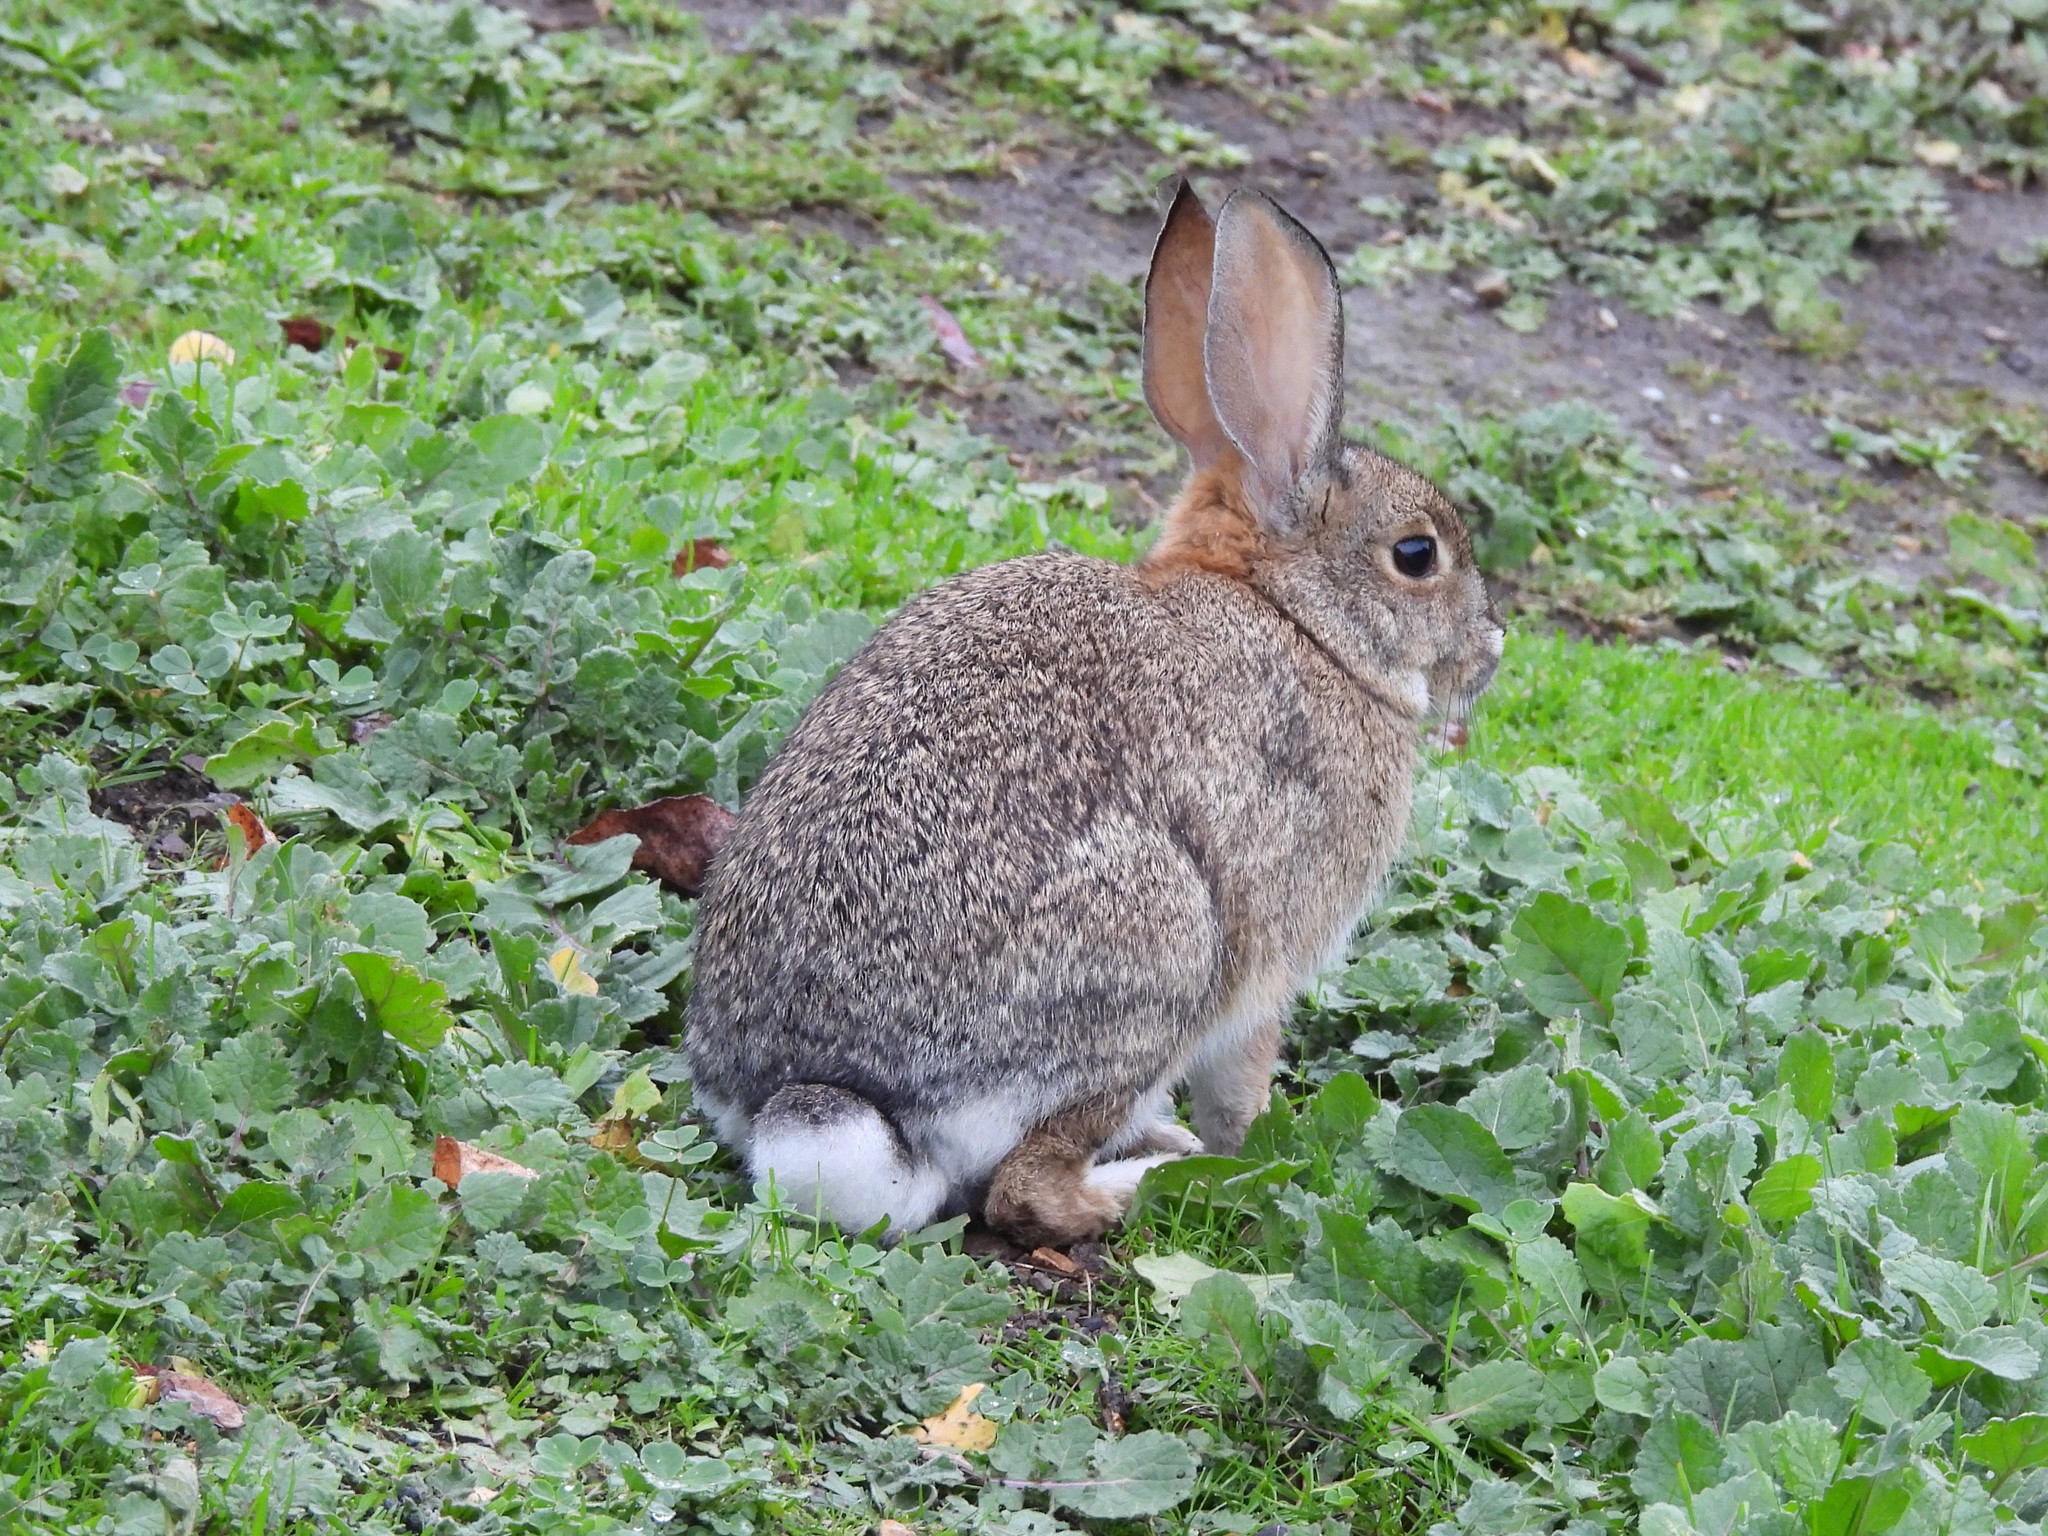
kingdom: Animalia
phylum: Chordata
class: Mammalia
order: Lagomorpha
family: Leporidae
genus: Sylvilagus
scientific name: Sylvilagus audubonii
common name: Desert cottontail
